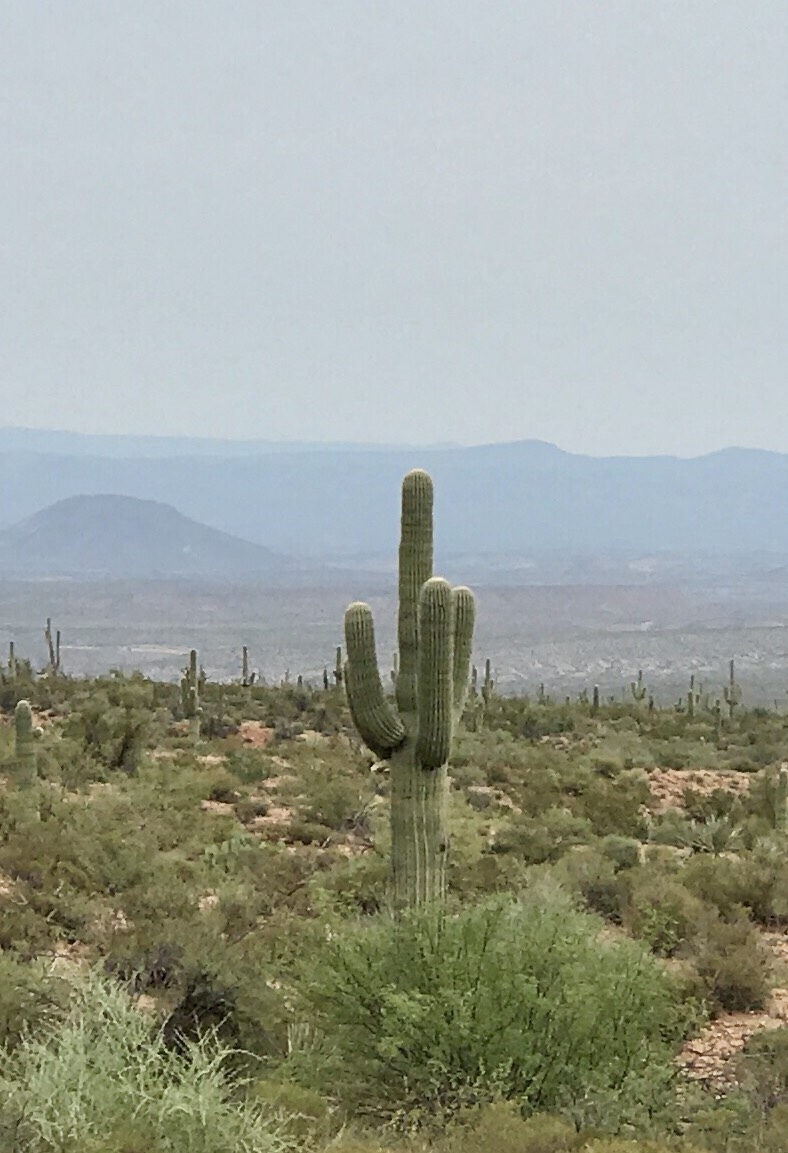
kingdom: Plantae
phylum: Tracheophyta
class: Magnoliopsida
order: Caryophyllales
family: Cactaceae
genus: Carnegiea
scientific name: Carnegiea gigantea
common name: Saguaro
